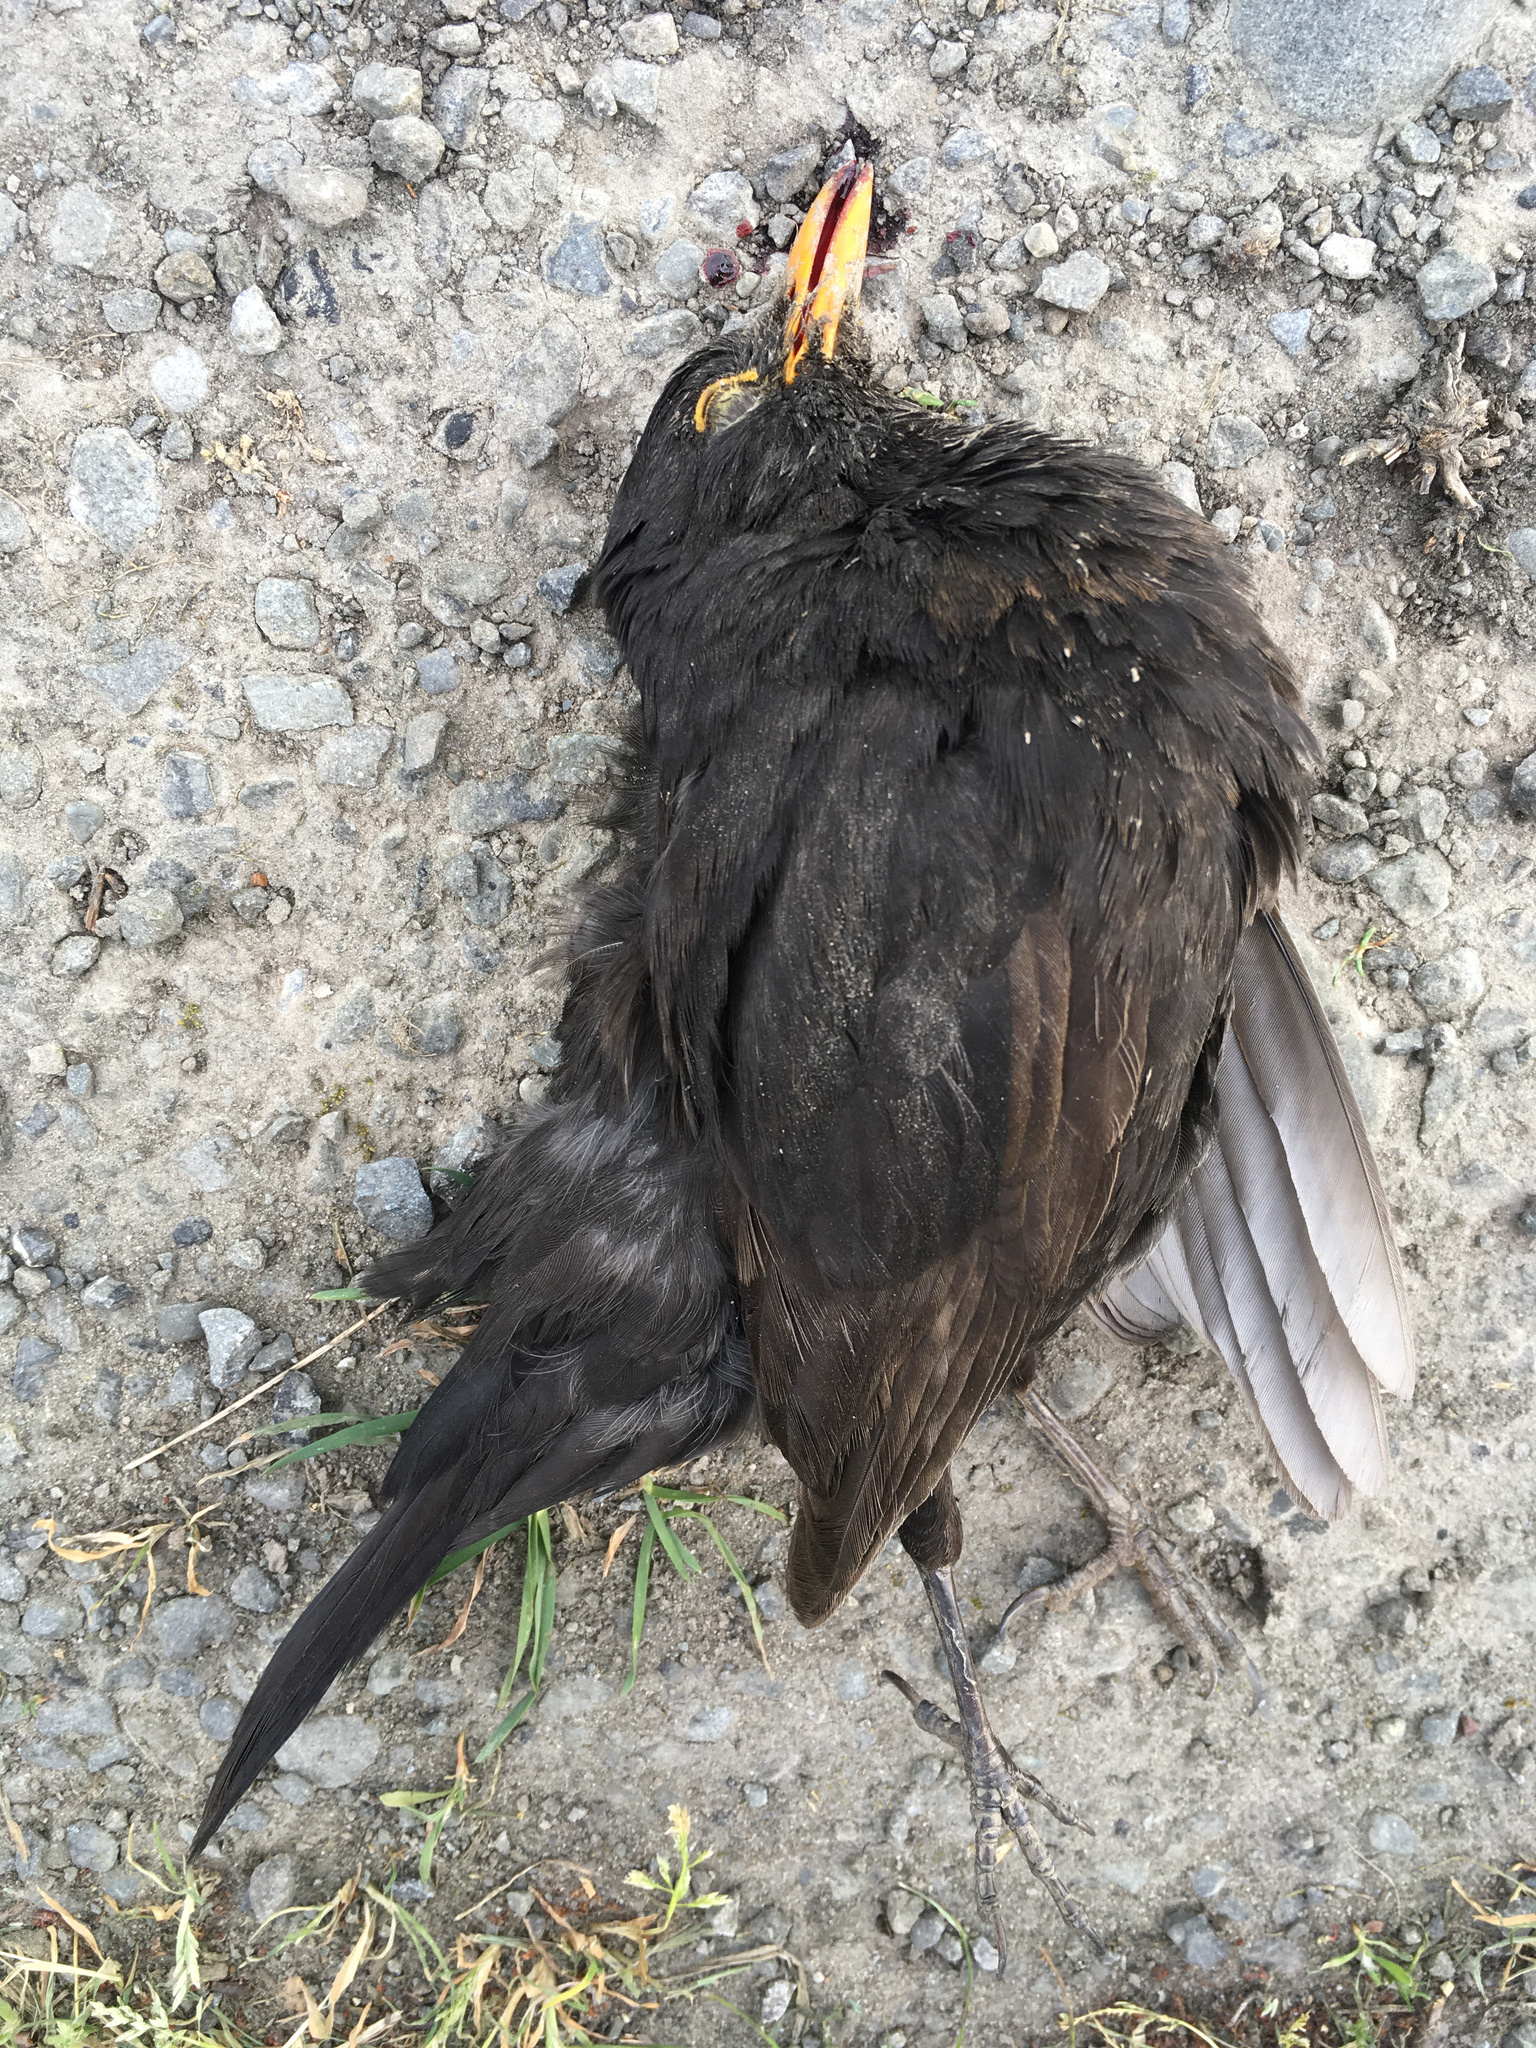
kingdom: Animalia
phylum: Chordata
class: Aves
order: Passeriformes
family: Turdidae
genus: Turdus
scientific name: Turdus merula
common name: Common blackbird
